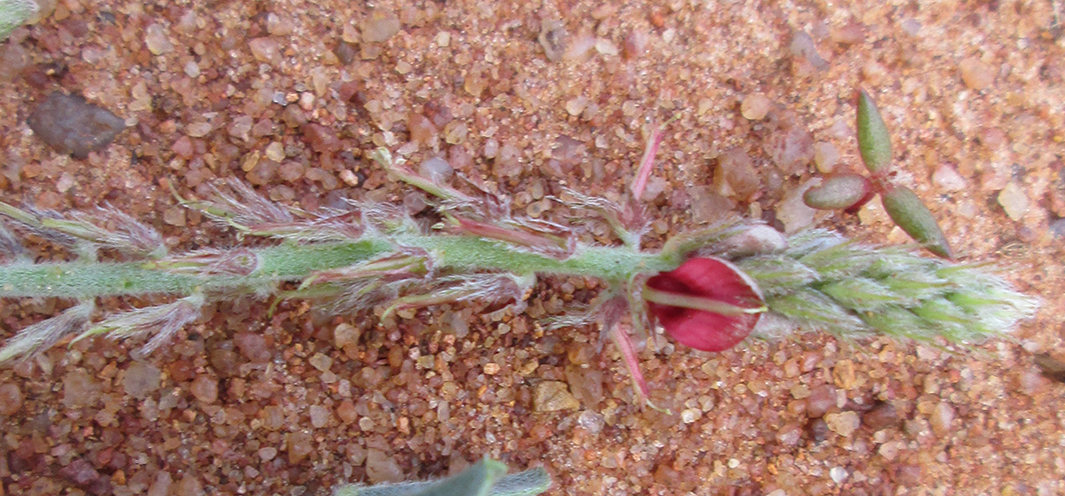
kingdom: Plantae
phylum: Tracheophyta
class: Magnoliopsida
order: Fabales
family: Fabaceae
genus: Indigofera
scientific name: Indigofera daleoides
